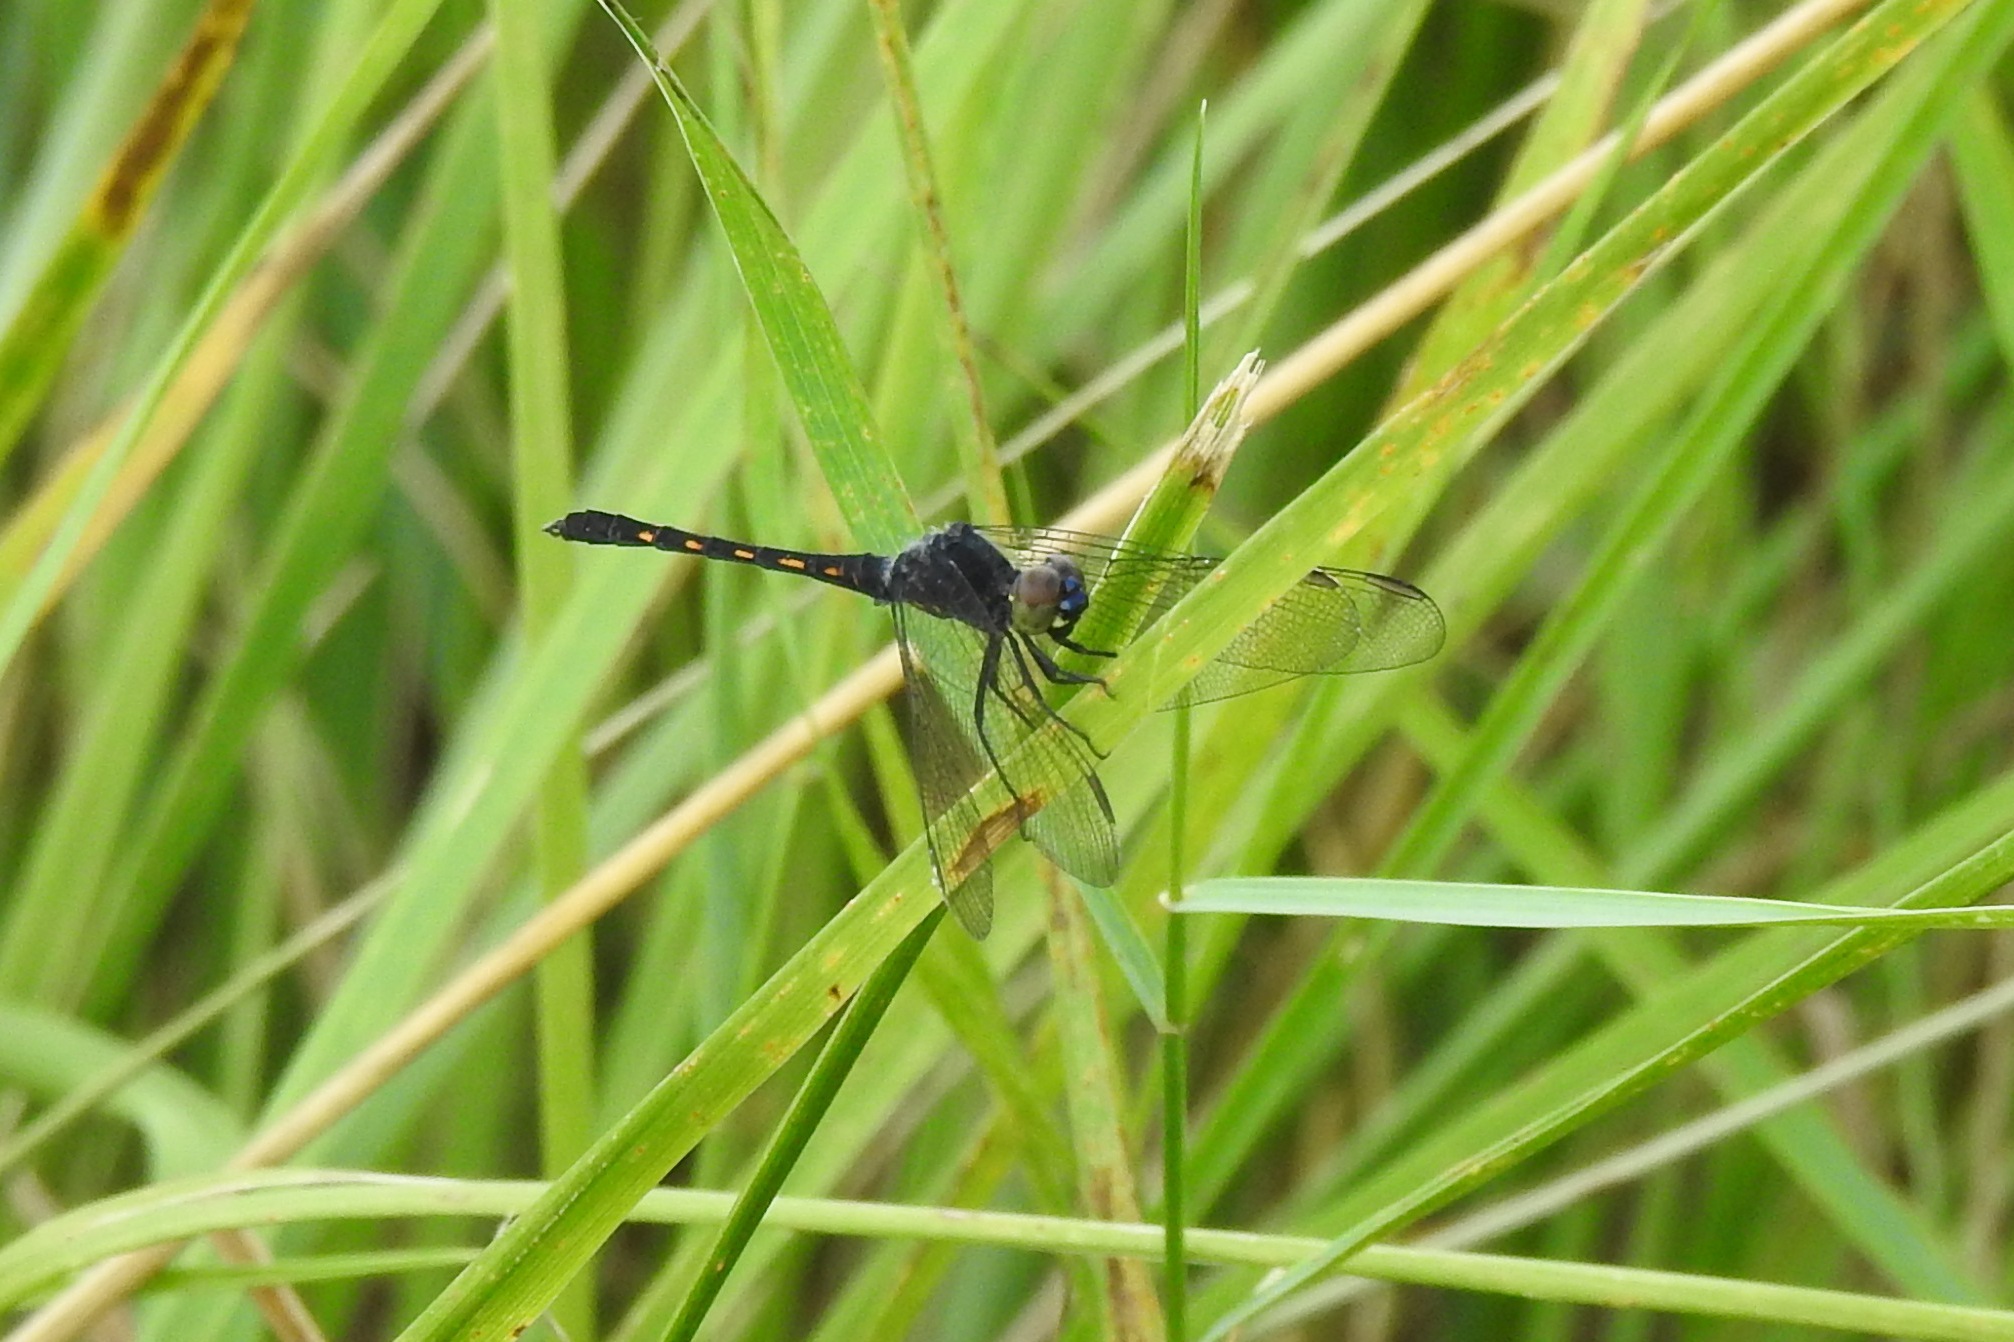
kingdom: Animalia
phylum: Arthropoda
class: Insecta
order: Odonata
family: Libellulidae
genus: Erythrodiplax
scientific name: Erythrodiplax berenice
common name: Seaside dragonlet
